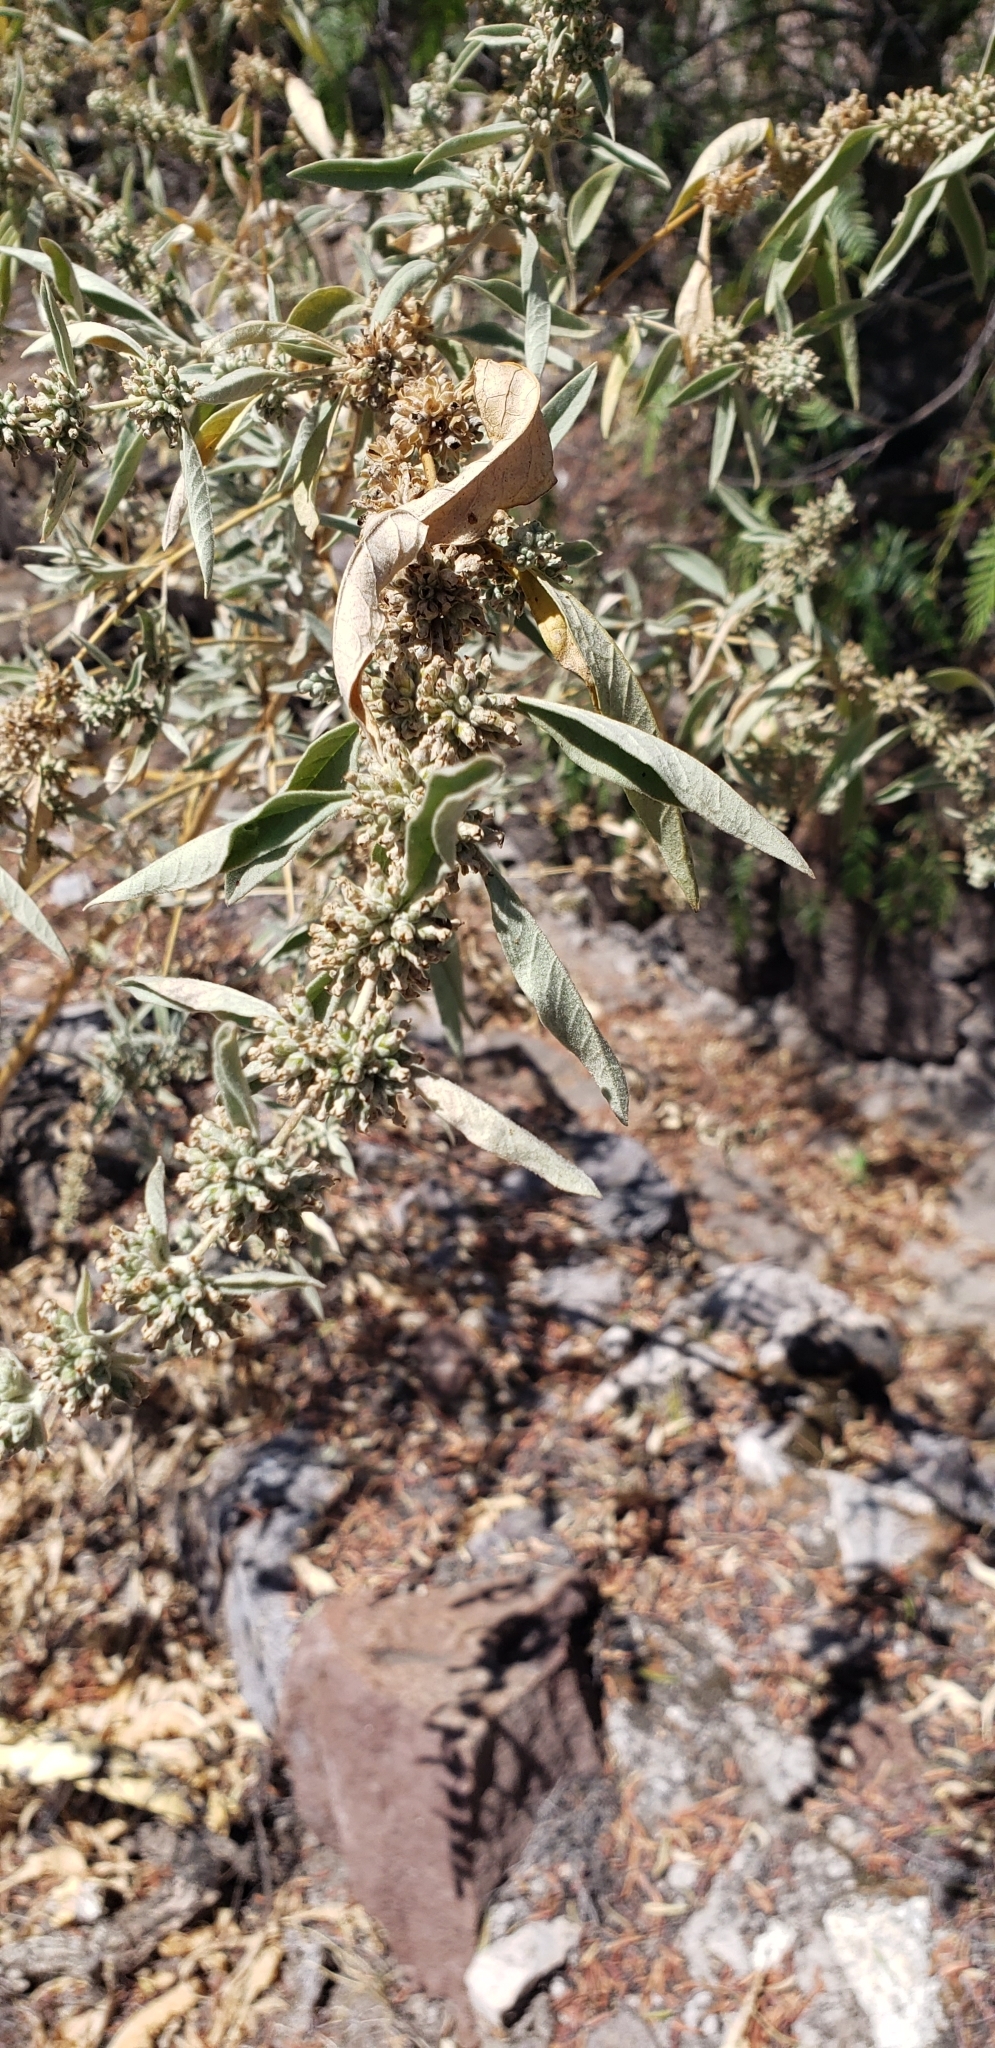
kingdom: Plantae
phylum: Tracheophyta
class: Magnoliopsida
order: Lamiales
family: Scrophulariaceae
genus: Buddleja
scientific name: Buddleja sessiliflora
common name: Rio grande butterfly-bush
